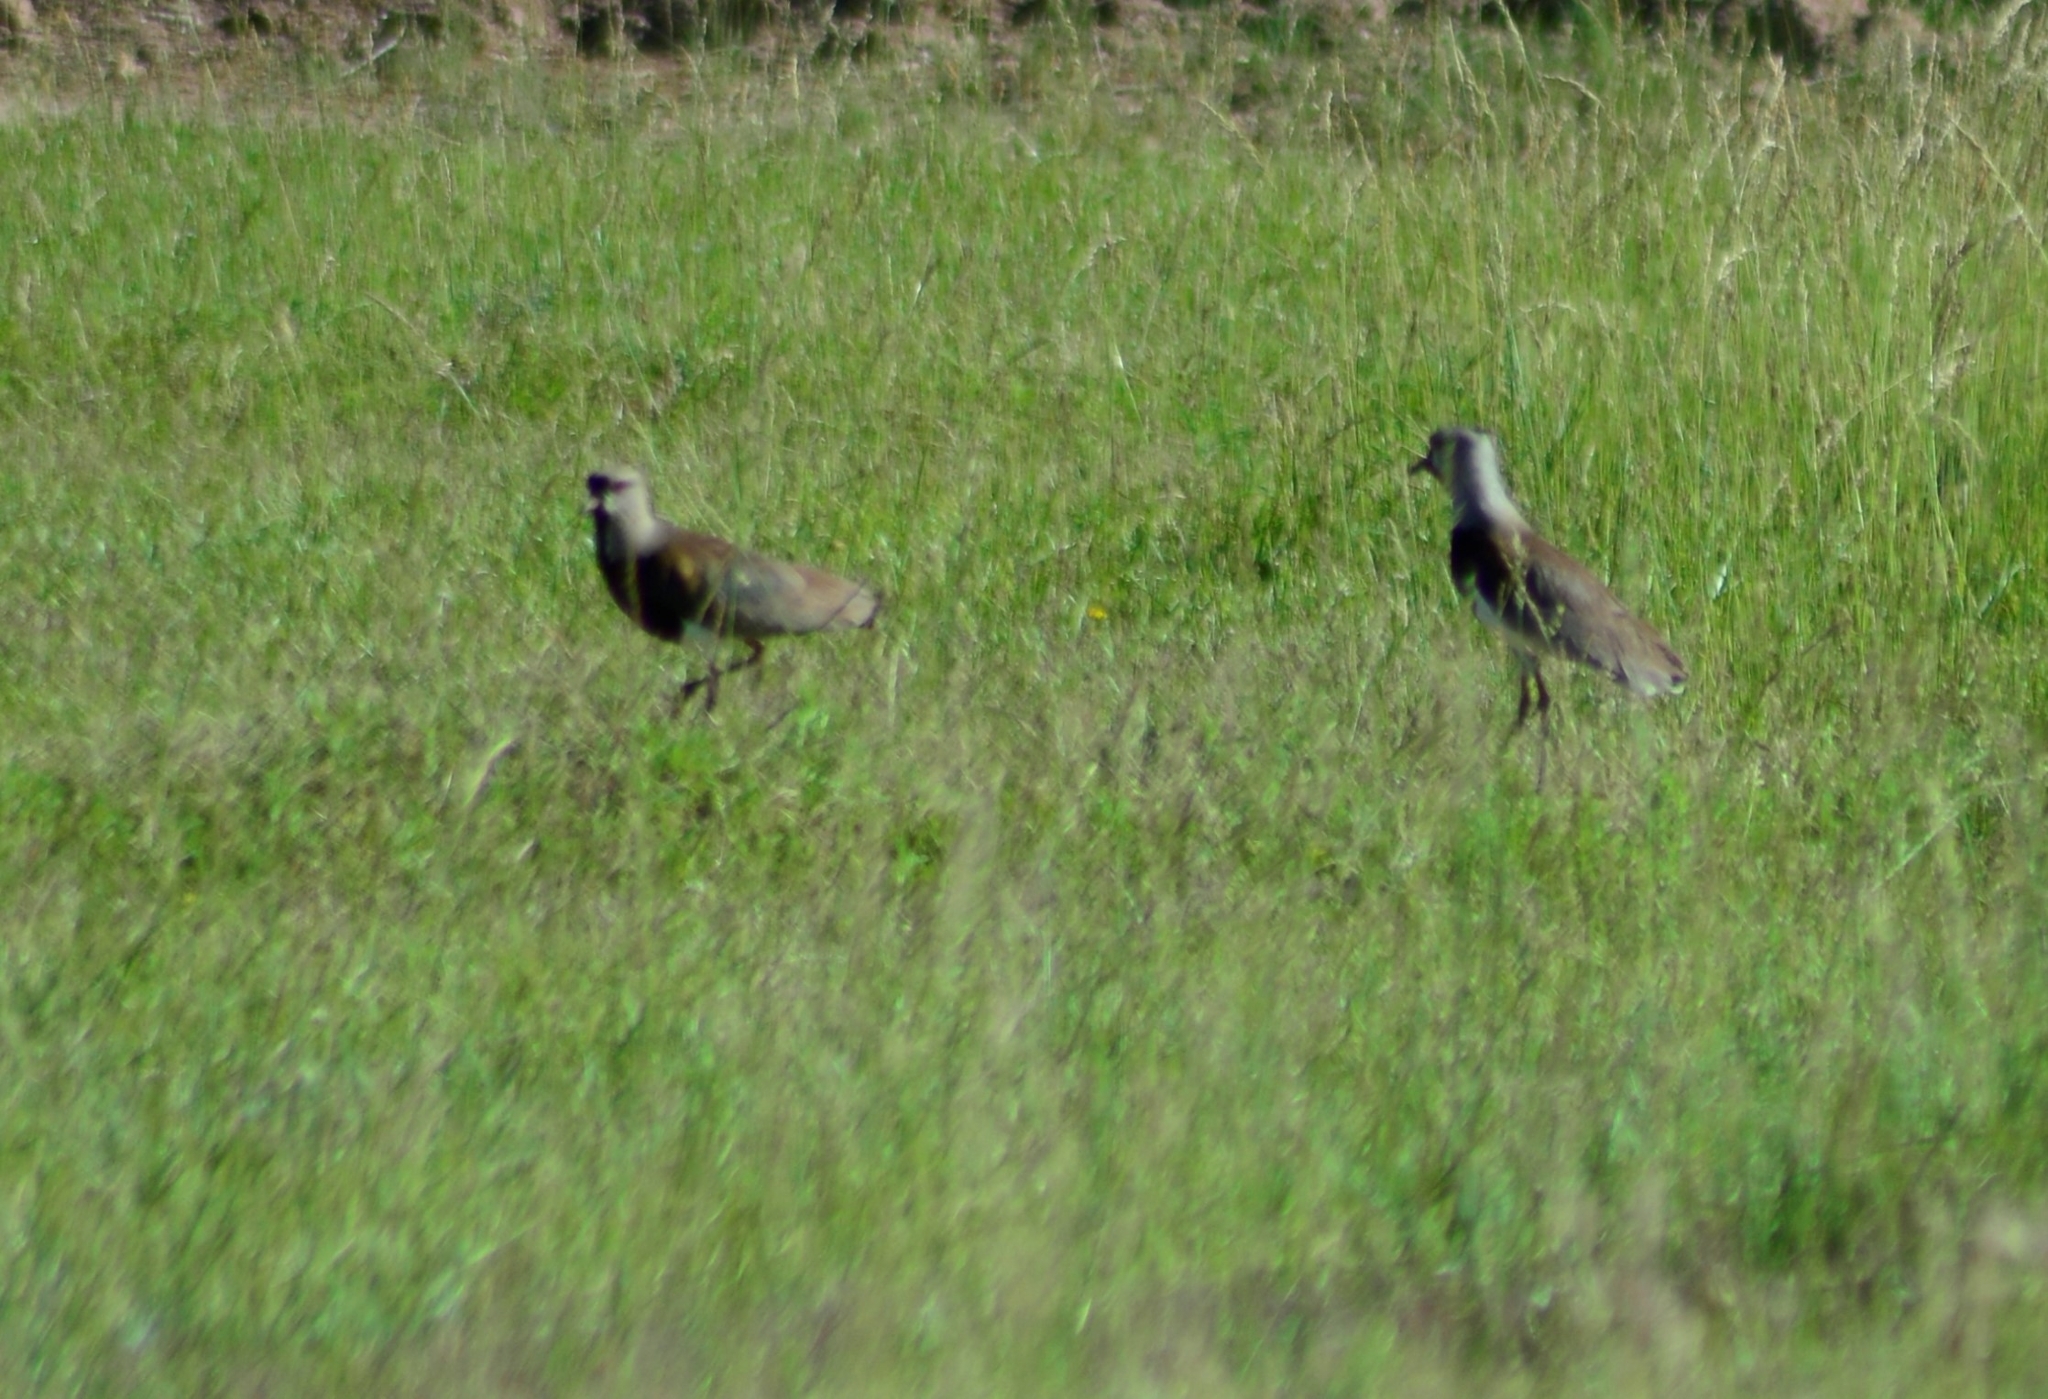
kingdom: Animalia
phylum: Chordata
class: Aves
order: Charadriiformes
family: Charadriidae
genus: Vanellus
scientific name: Vanellus chilensis
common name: Southern lapwing
